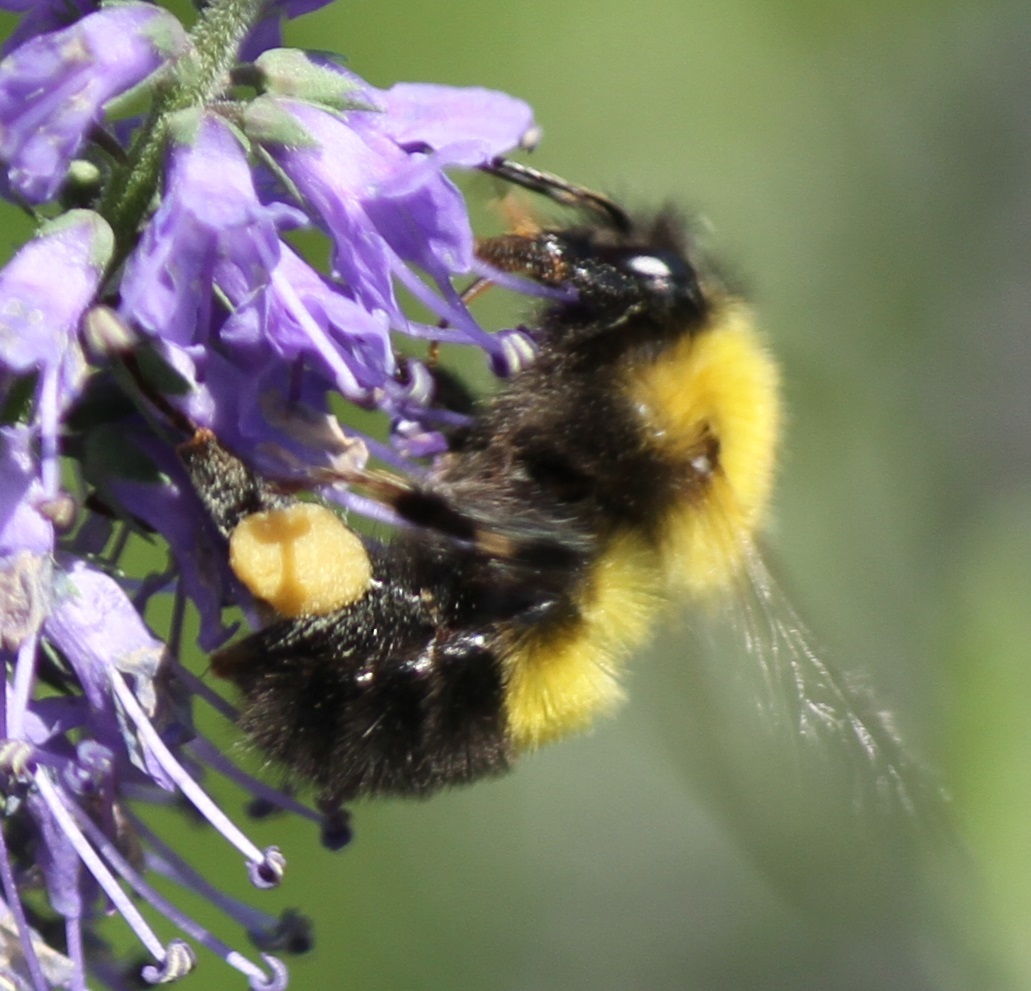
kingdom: Animalia
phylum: Arthropoda
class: Insecta
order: Hymenoptera
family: Apidae
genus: Bombus
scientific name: Bombus perplexus
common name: Confusing bumble bee
